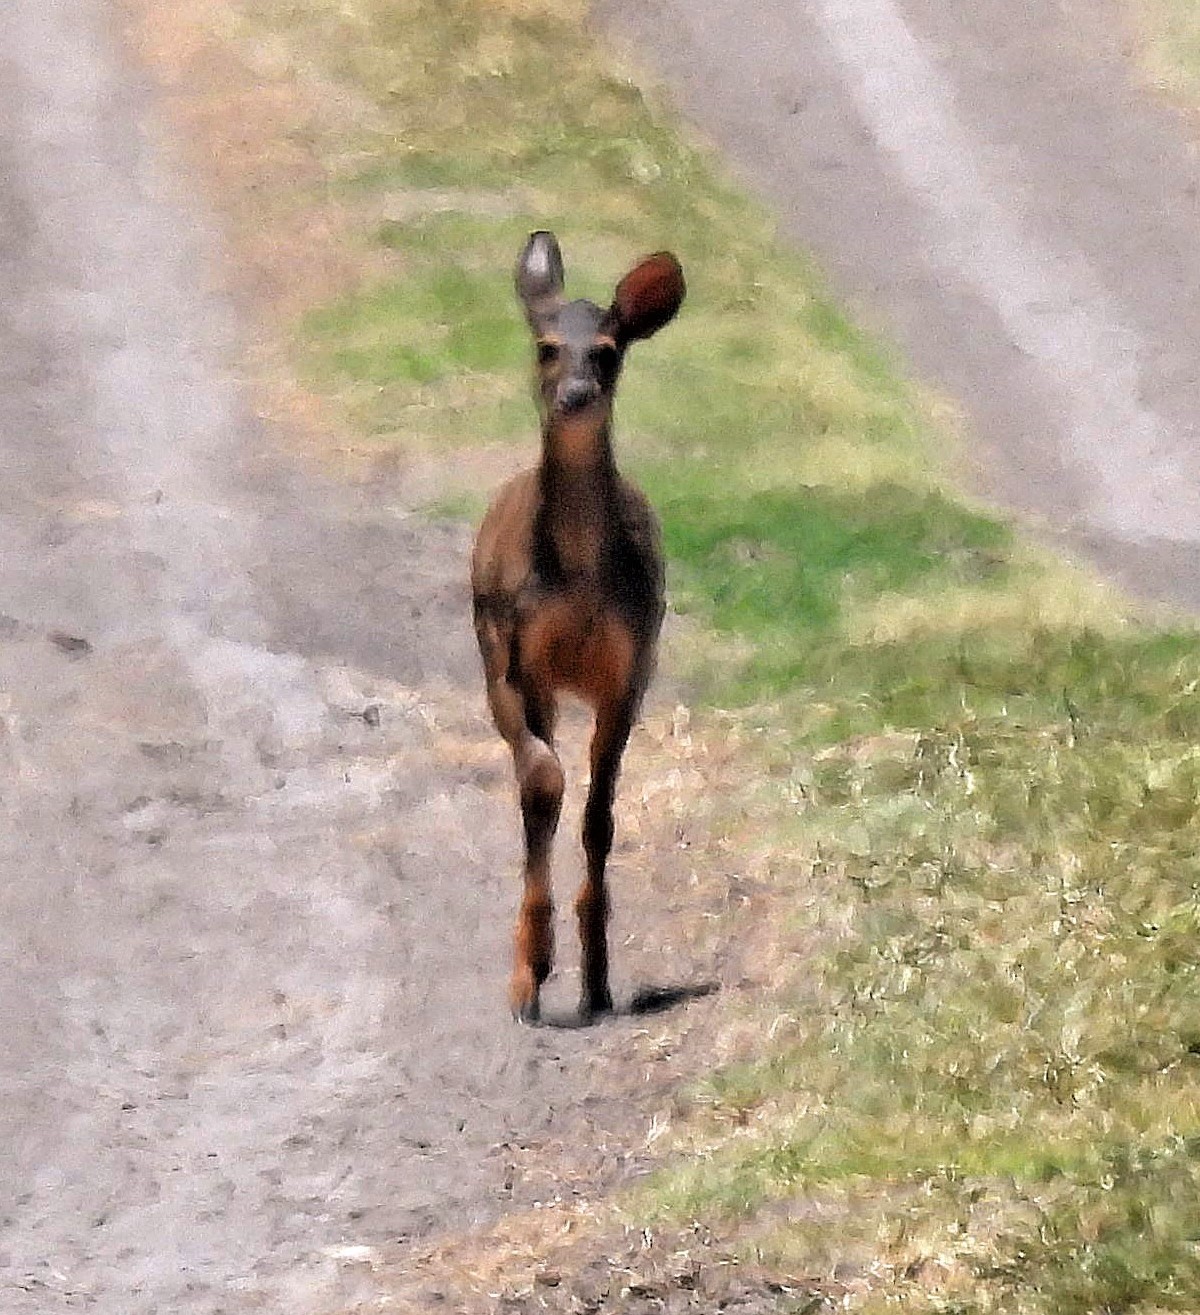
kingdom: Animalia
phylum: Chordata
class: Mammalia
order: Artiodactyla
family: Cervidae
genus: Mazama
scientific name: Mazama gouazoubira
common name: Gray brocket
